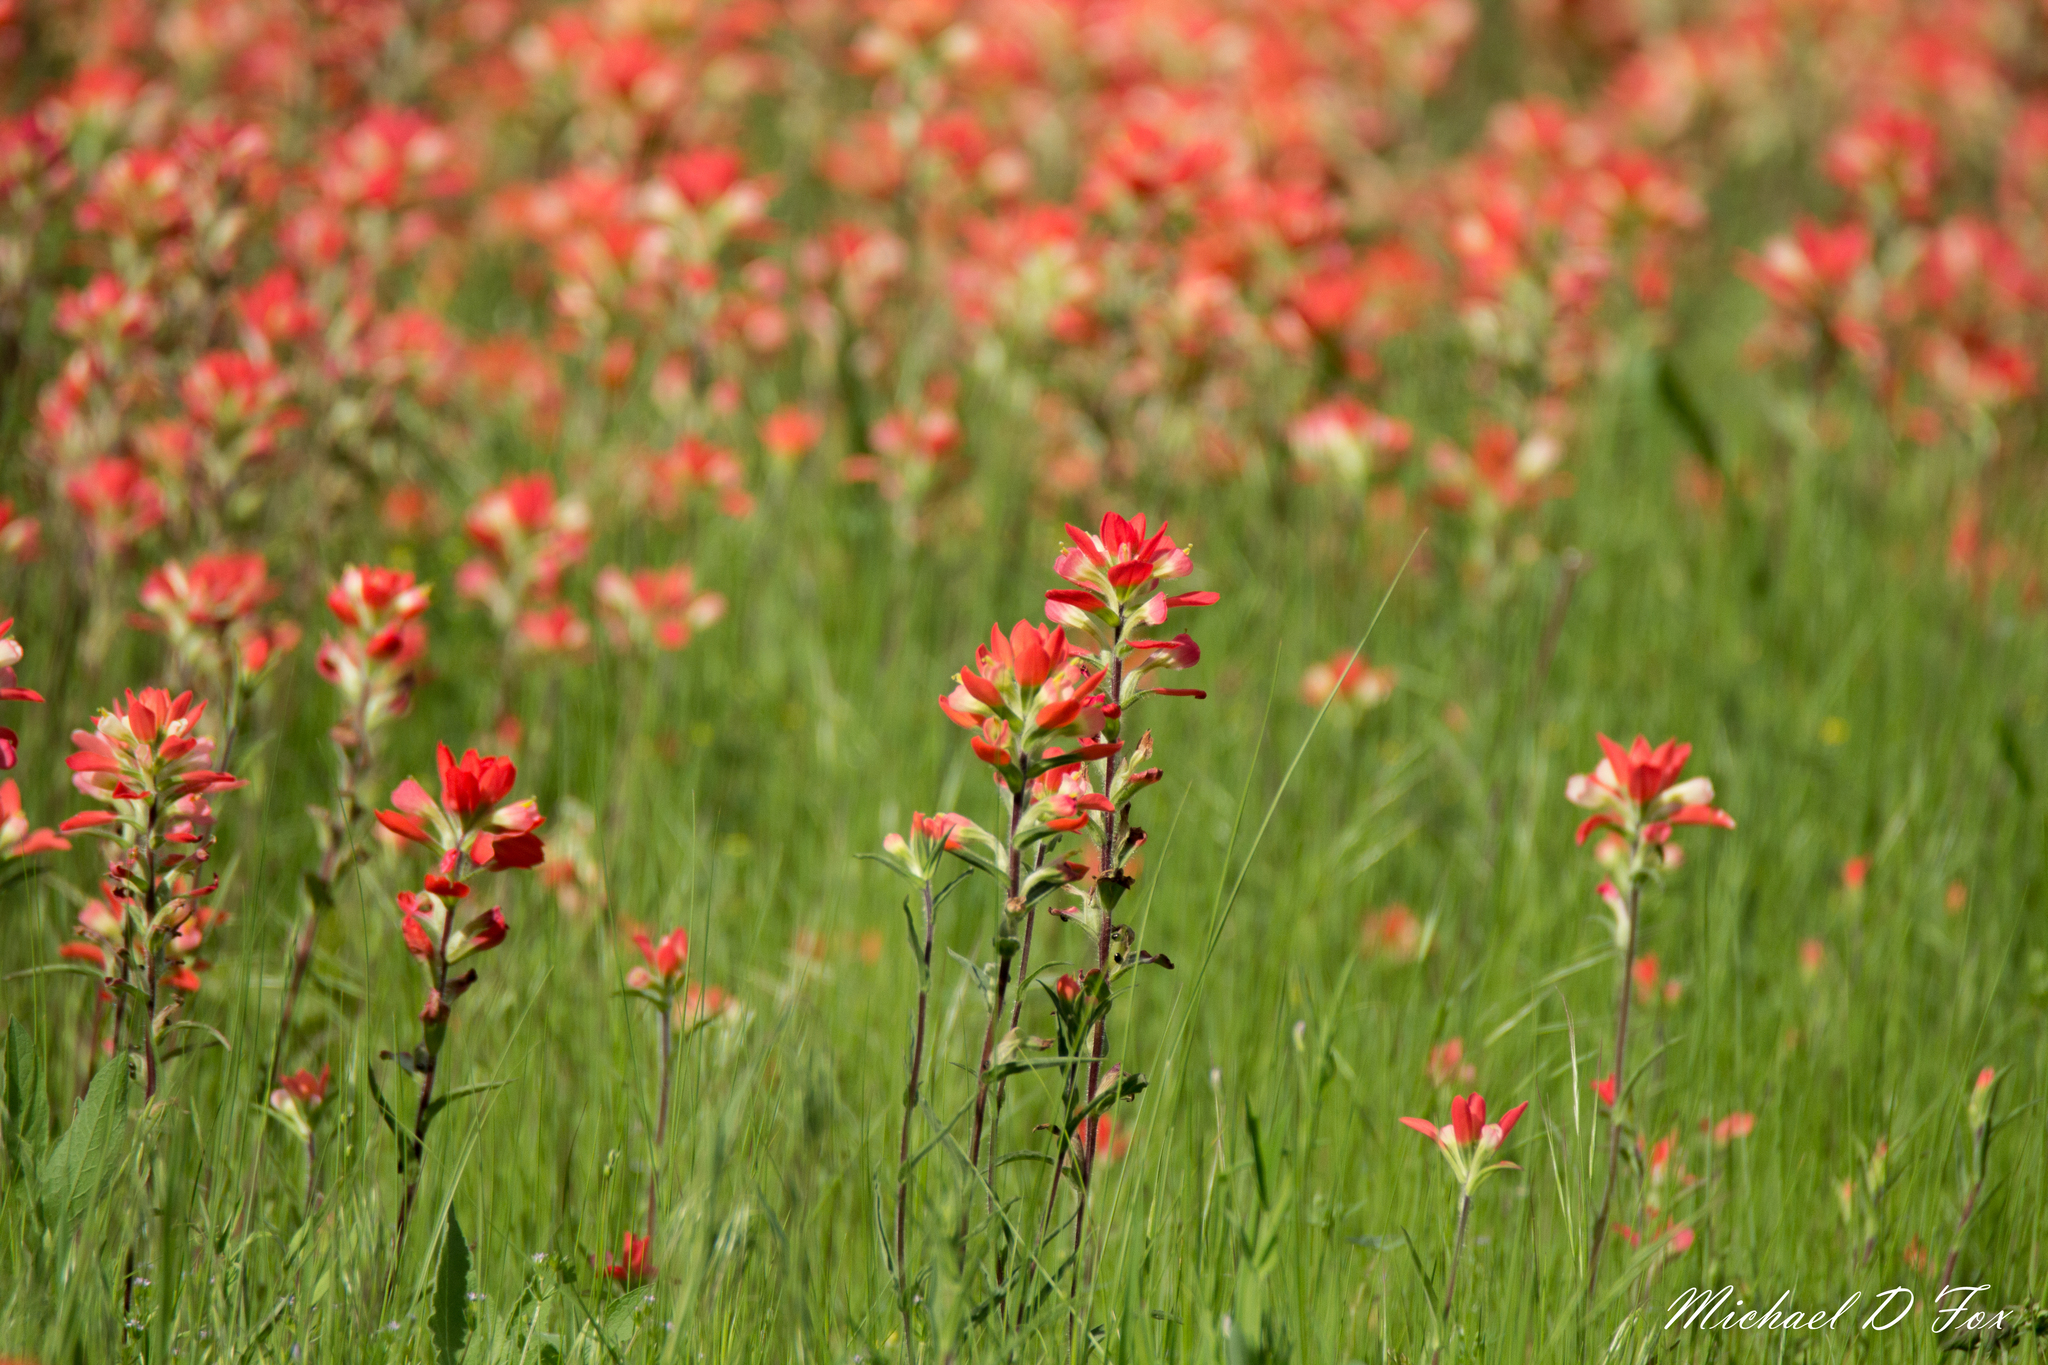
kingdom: Plantae
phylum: Tracheophyta
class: Magnoliopsida
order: Lamiales
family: Orobanchaceae
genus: Castilleja
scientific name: Castilleja indivisa
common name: Texas paintbrush
